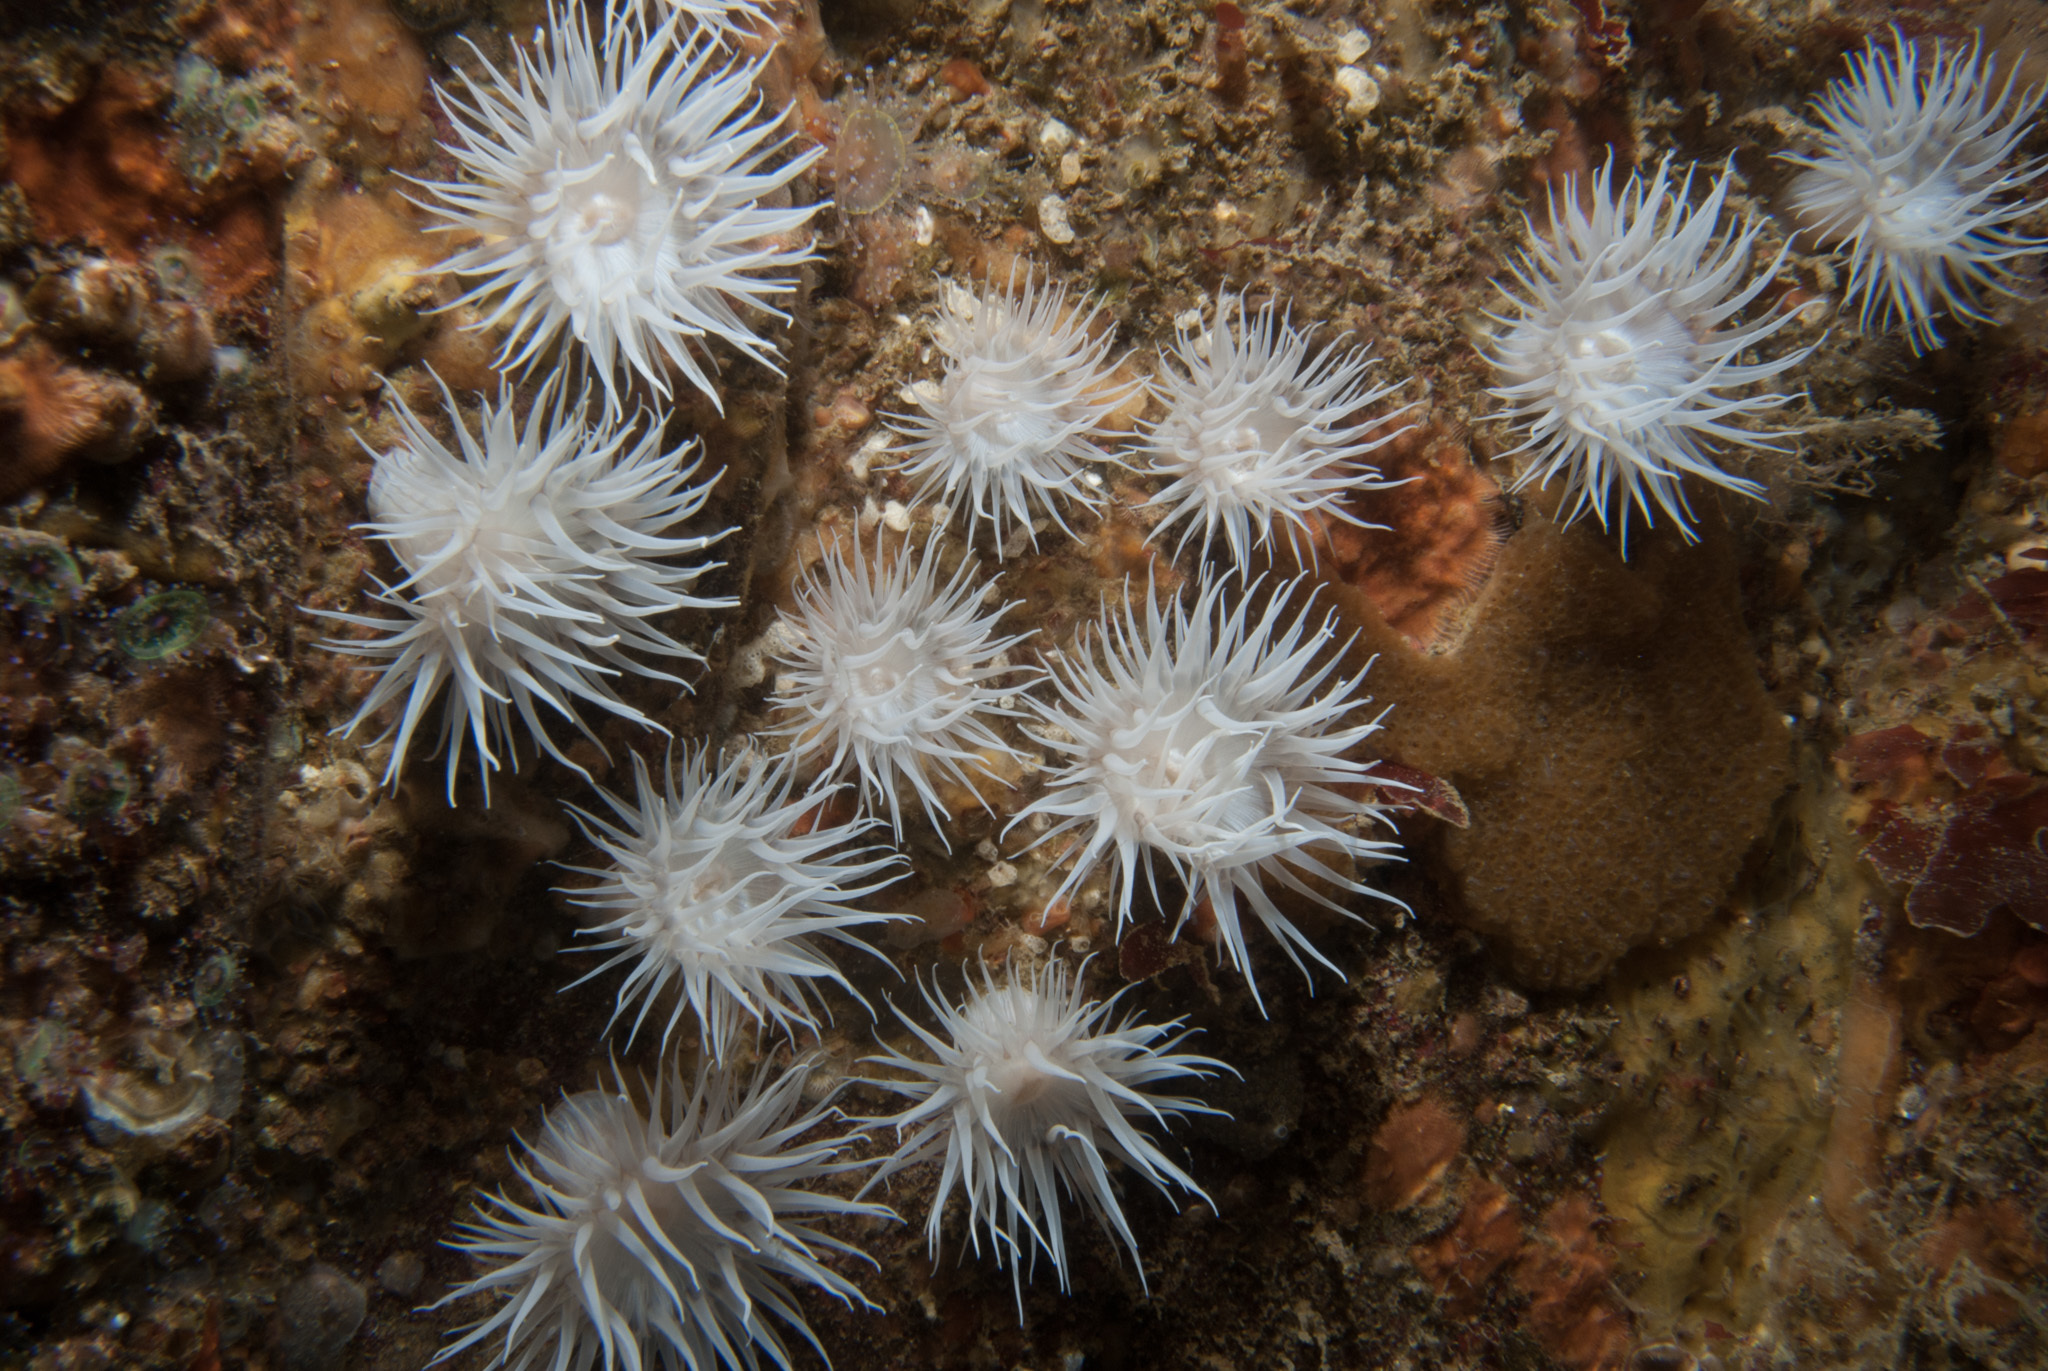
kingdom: Animalia
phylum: Cnidaria
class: Anthozoa
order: Actiniaria
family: Sagartiidae
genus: Actinothoe
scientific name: Actinothoe sphyrodeta
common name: Sandalled anemone
